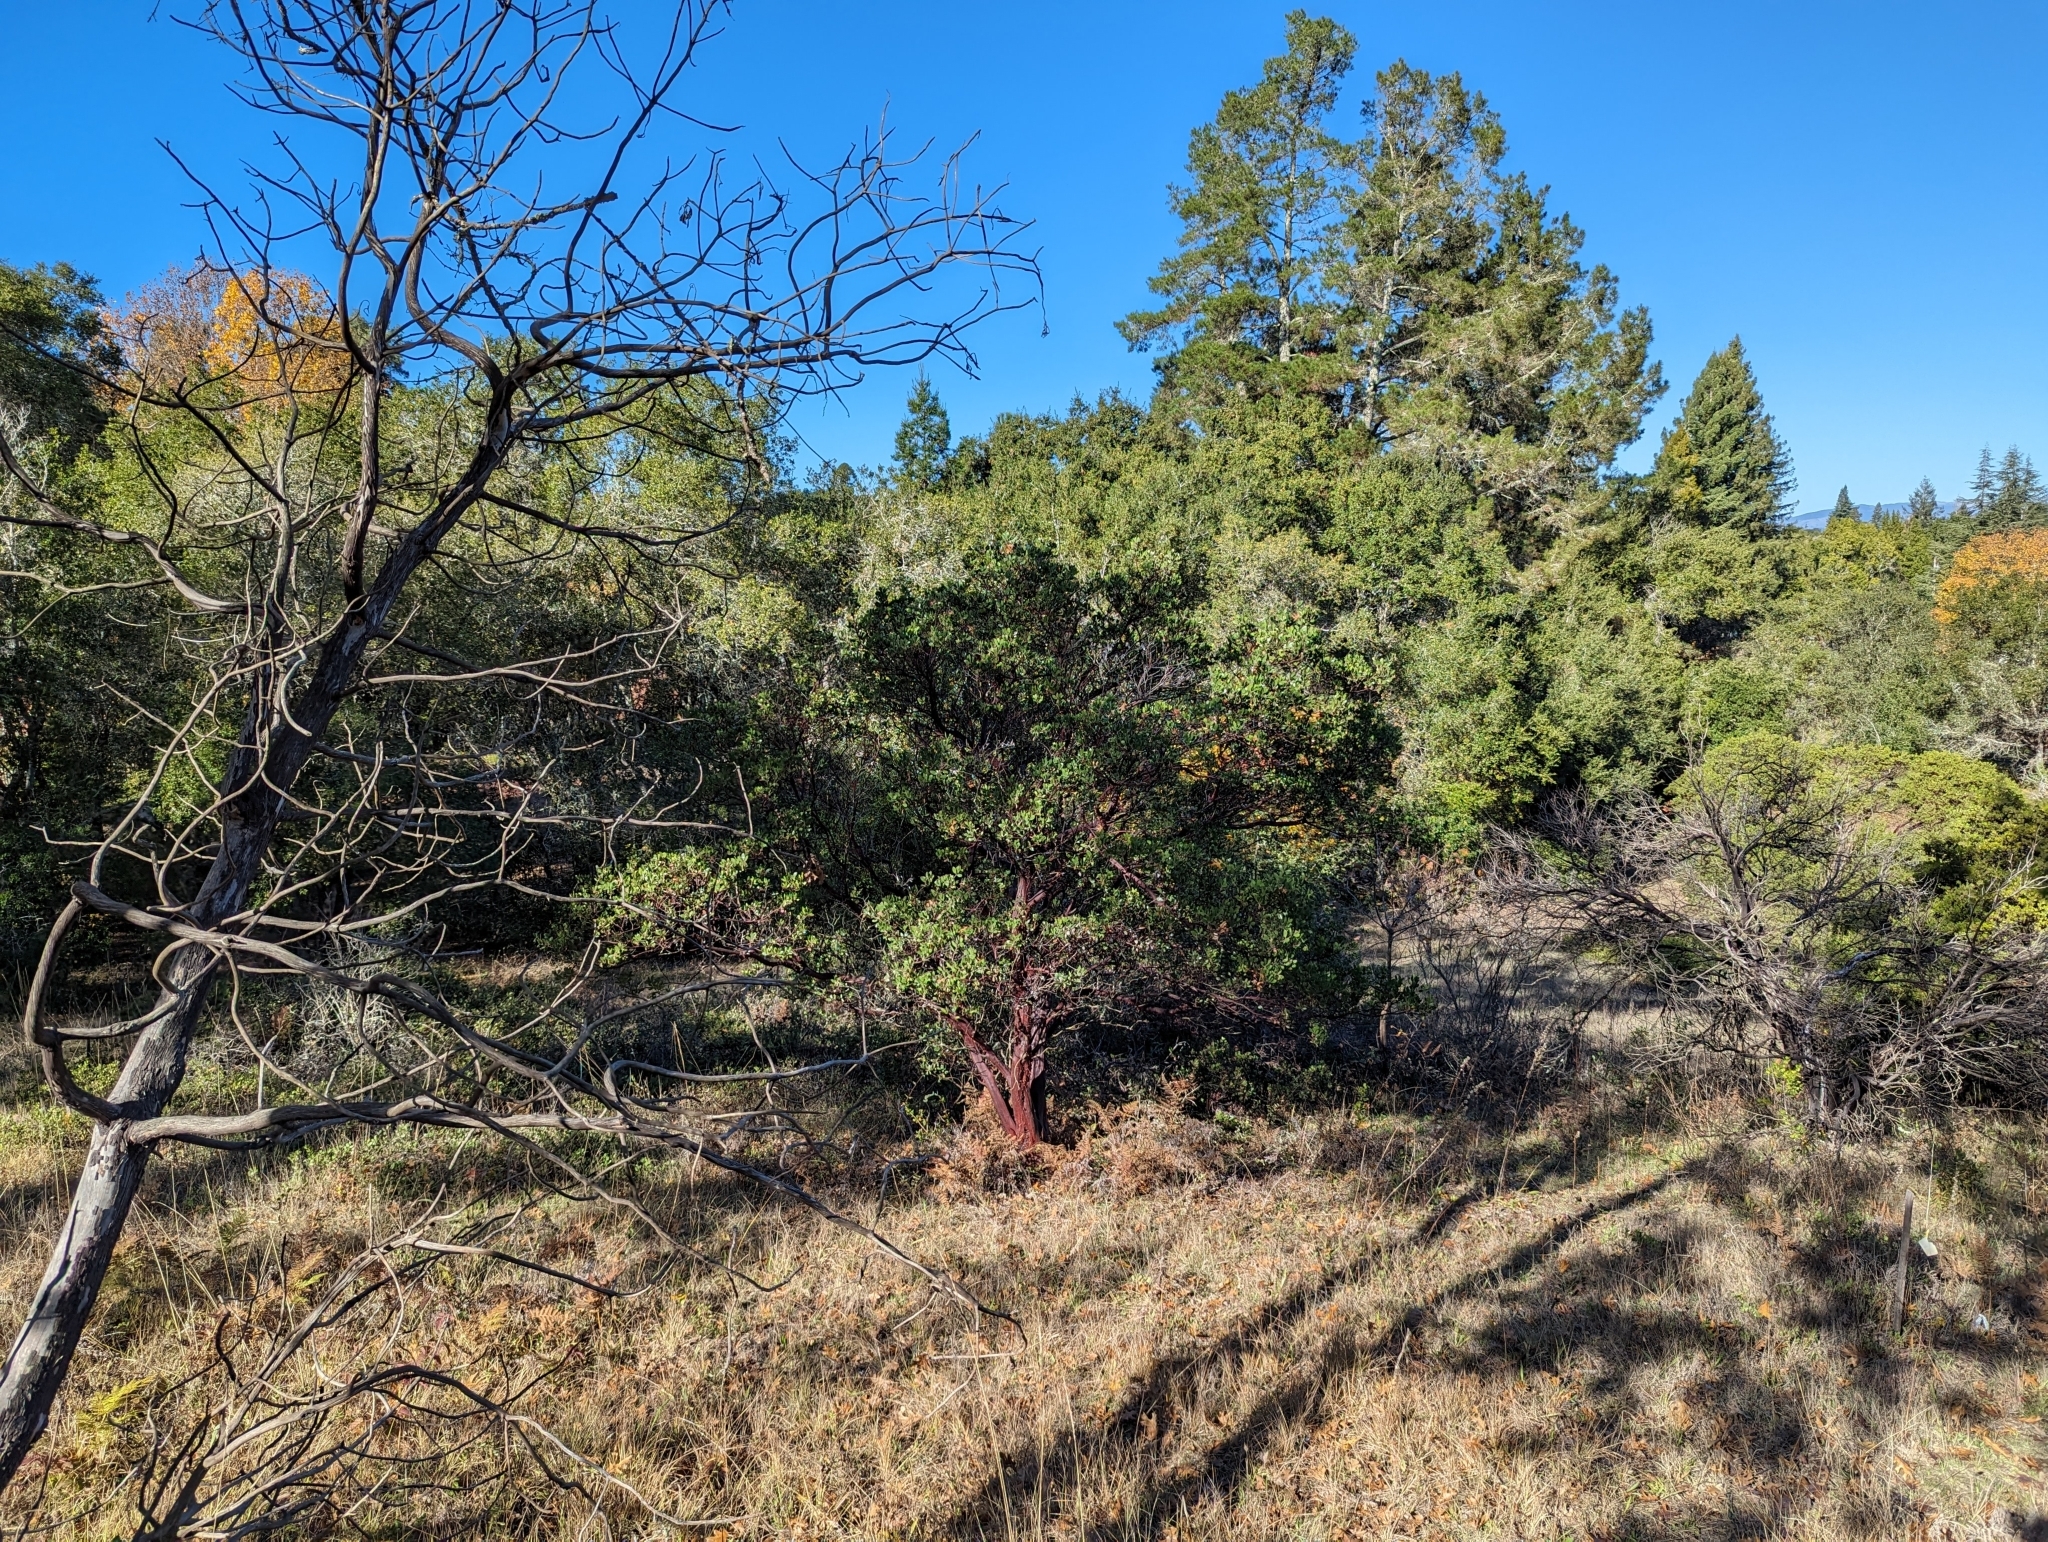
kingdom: Plantae
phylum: Tracheophyta
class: Magnoliopsida
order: Ericales
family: Ericaceae
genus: Arctostaphylos
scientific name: Arctostaphylos manzanita
